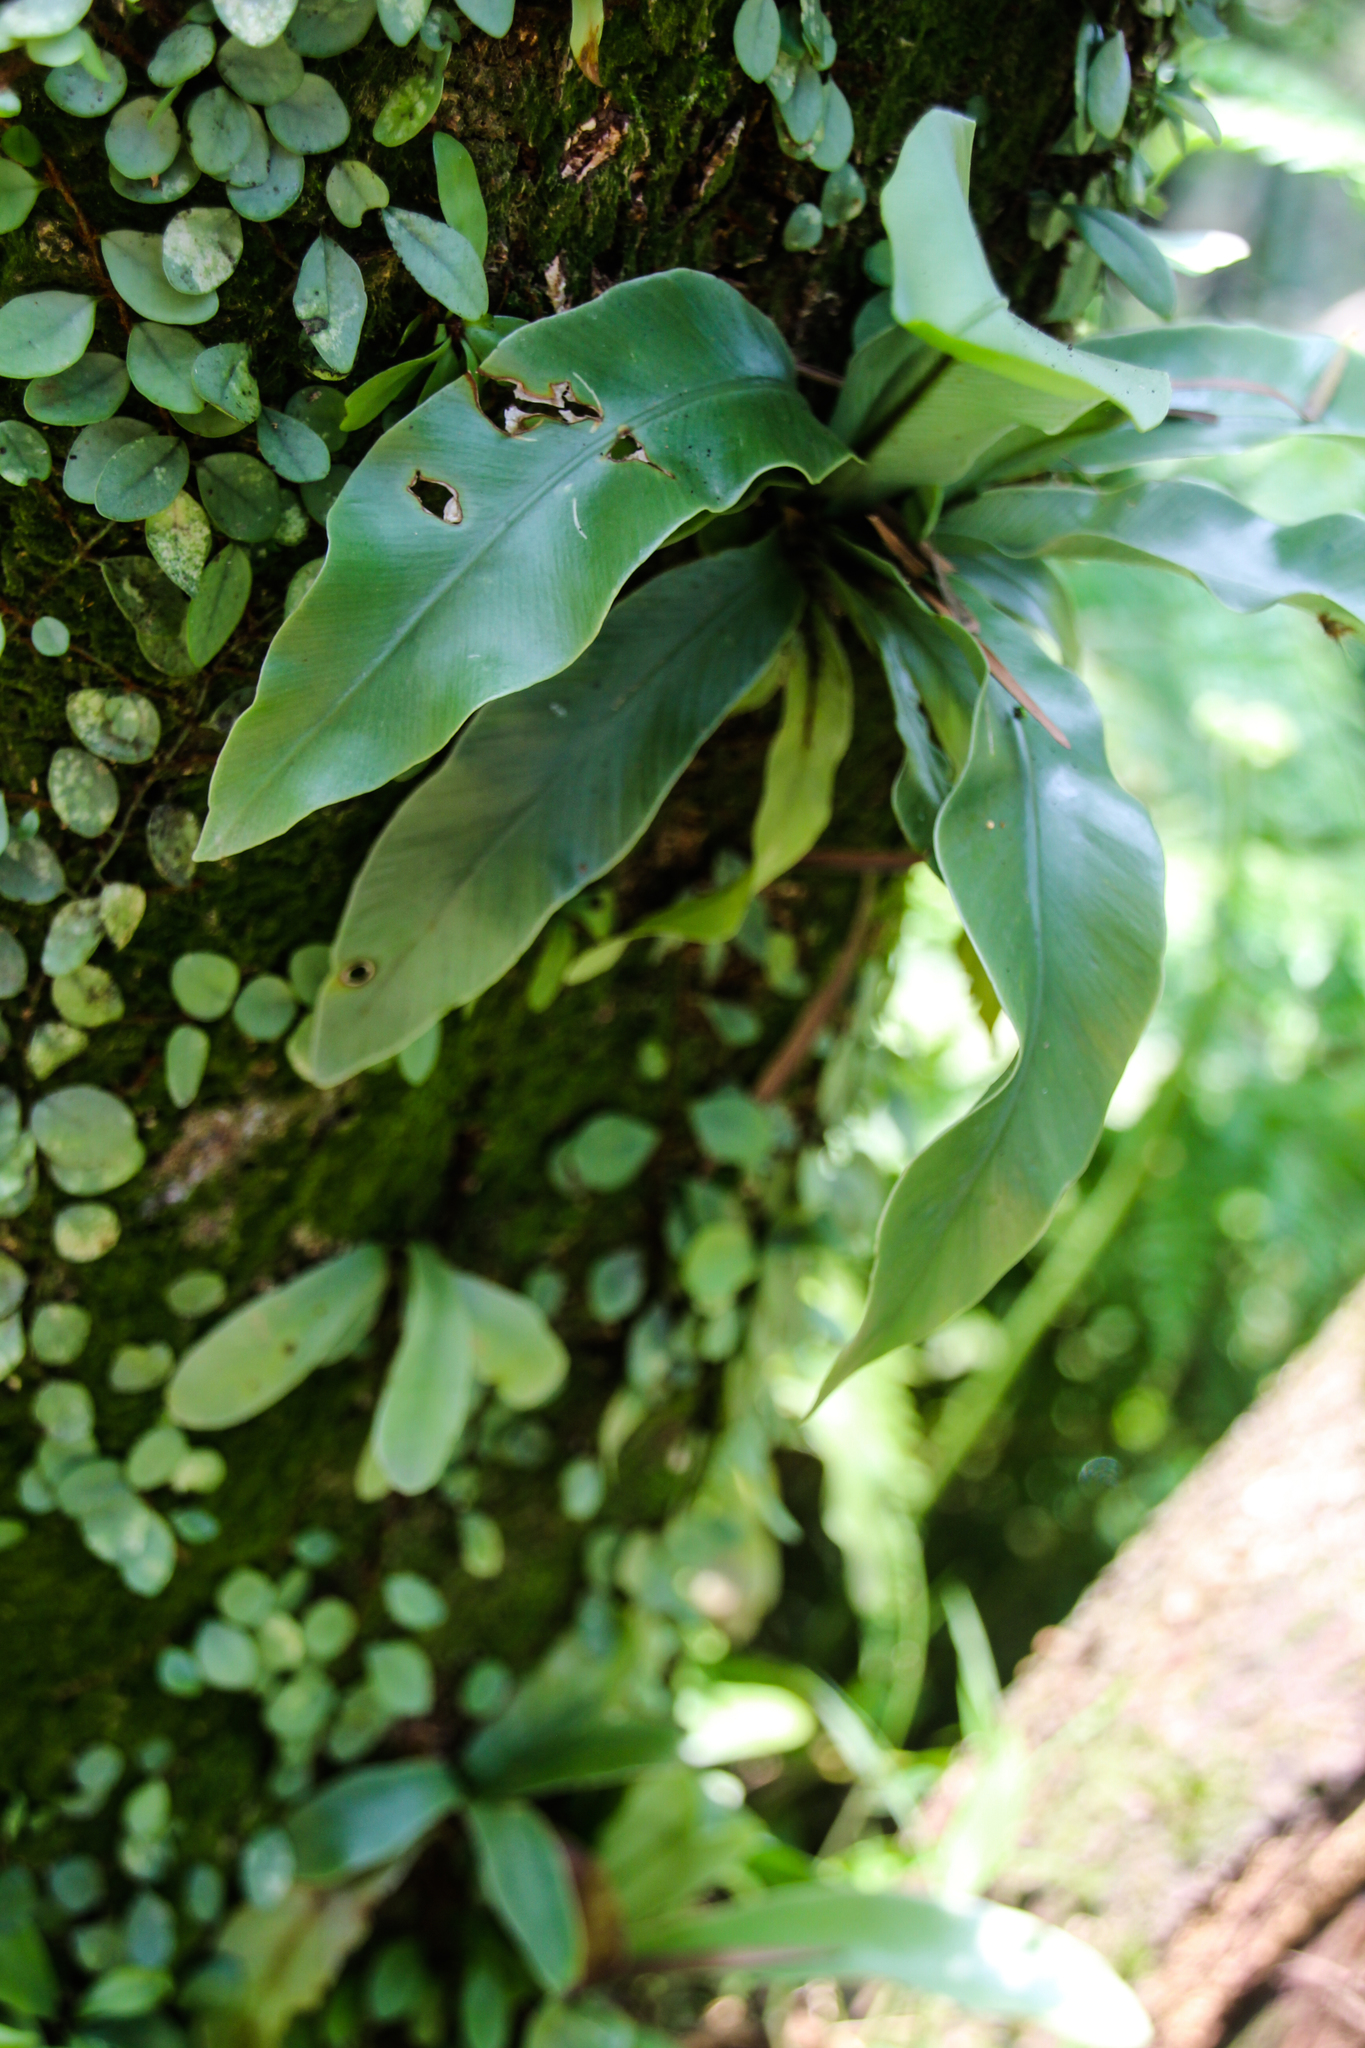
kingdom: Plantae
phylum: Tracheophyta
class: Polypodiopsida
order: Polypodiales
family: Aspleniaceae
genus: Asplenium
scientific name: Asplenium nidus
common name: Bird's-nest fern
